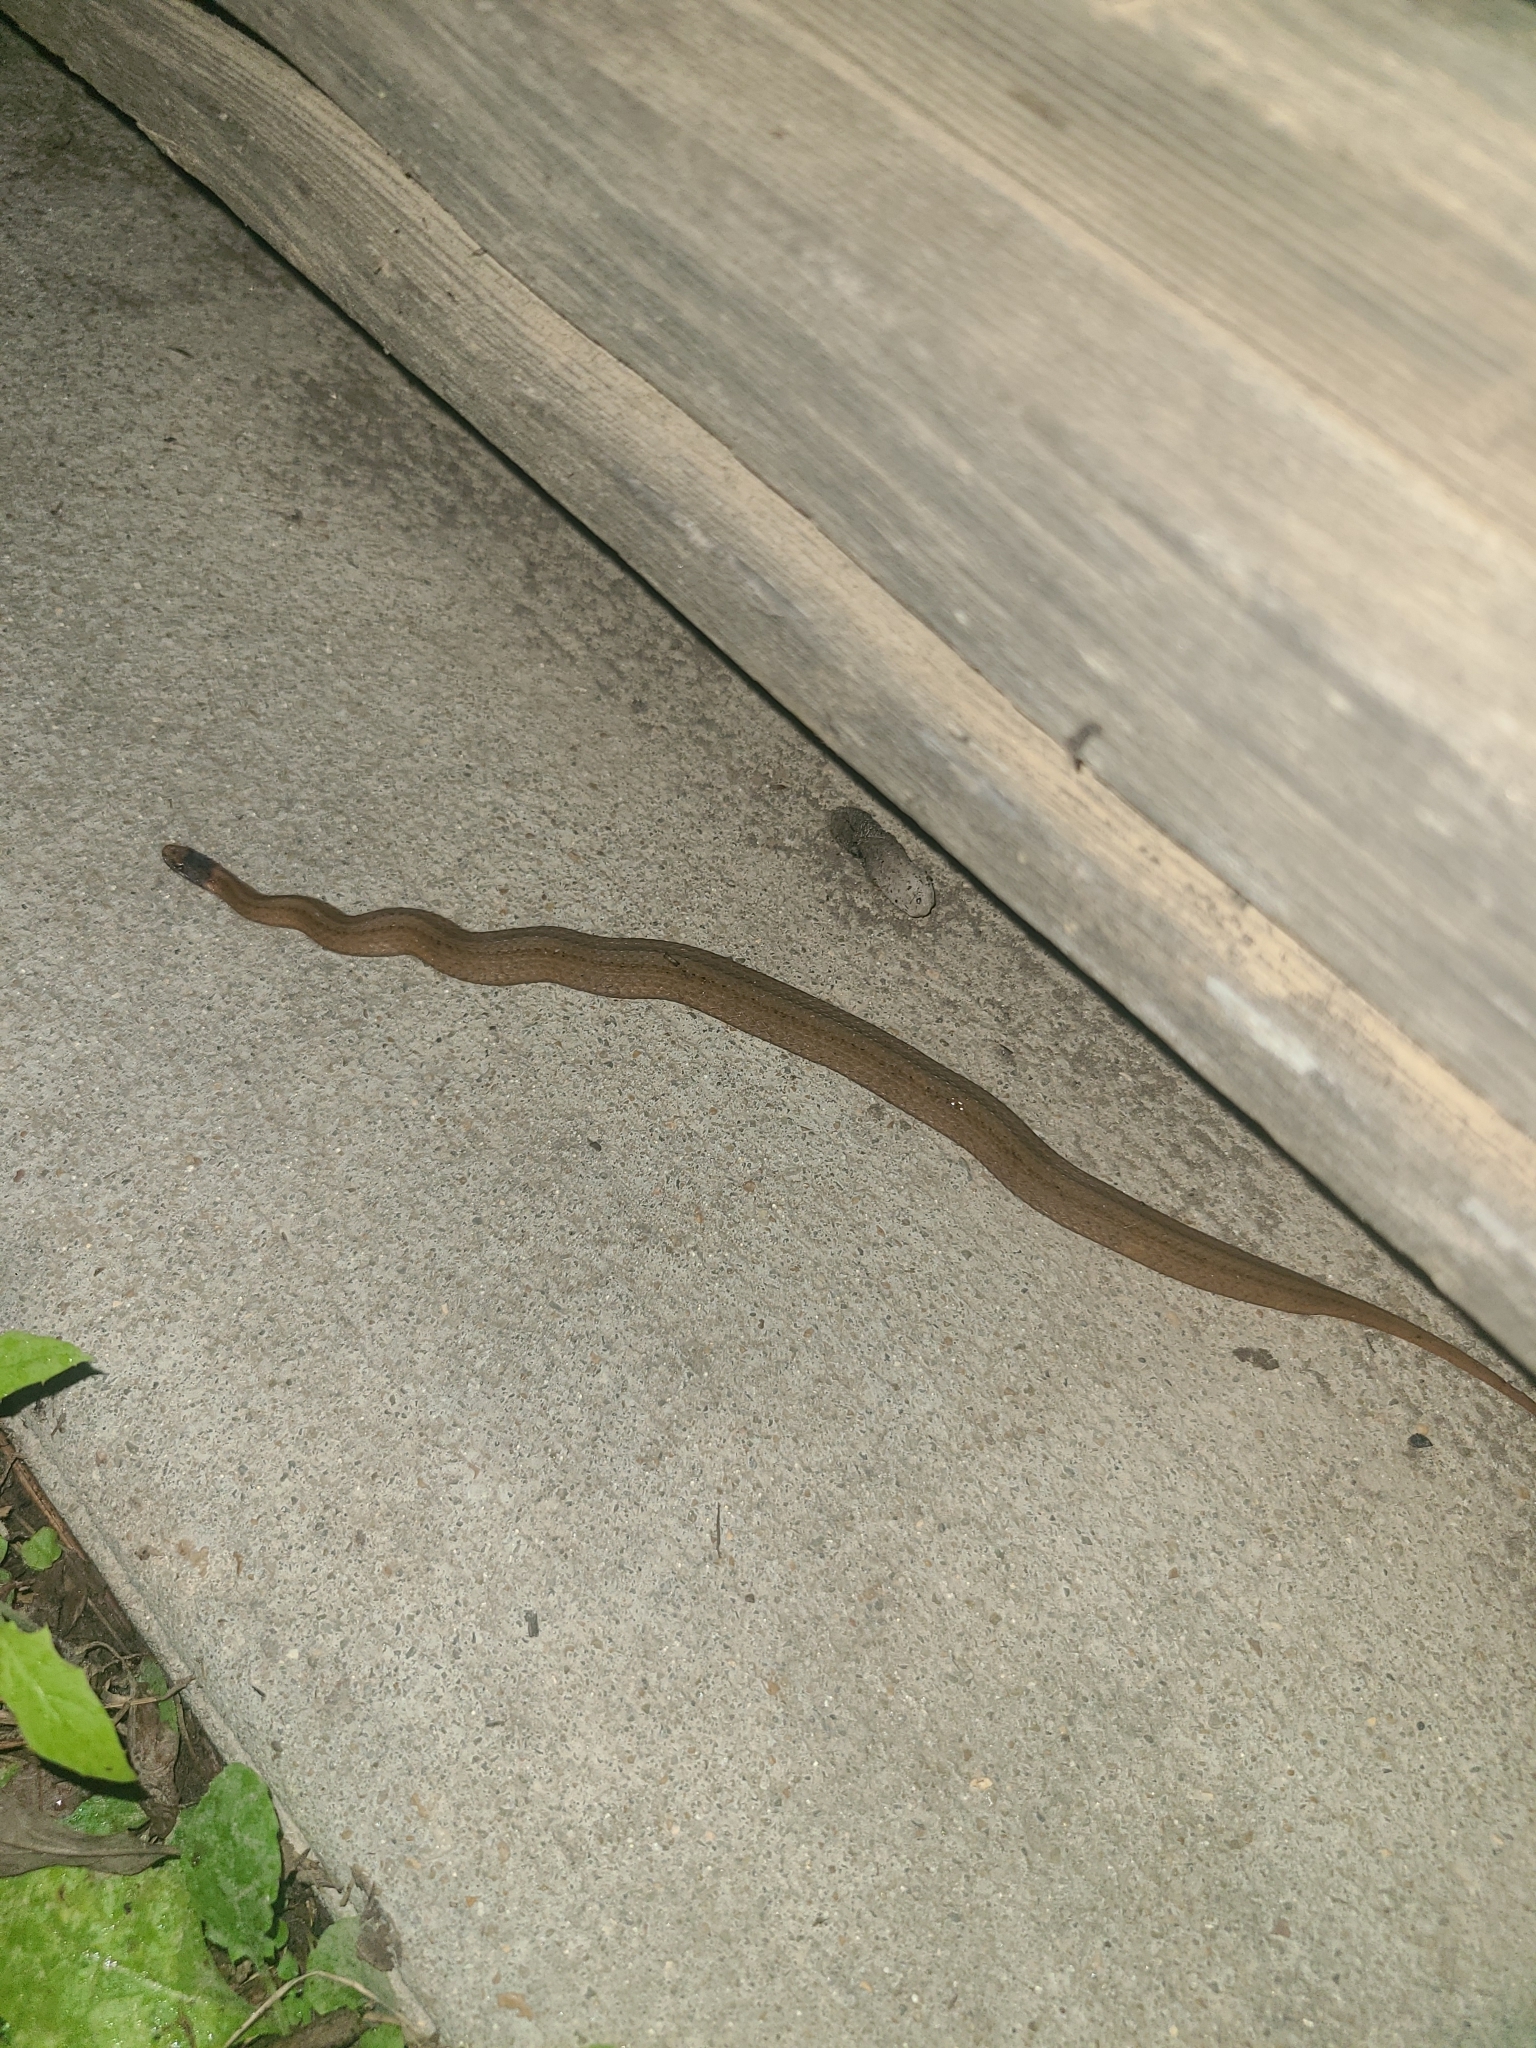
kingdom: Animalia
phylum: Chordata
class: Squamata
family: Colubridae
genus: Storeria
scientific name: Storeria occipitomaculata
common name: Redbelly snake
